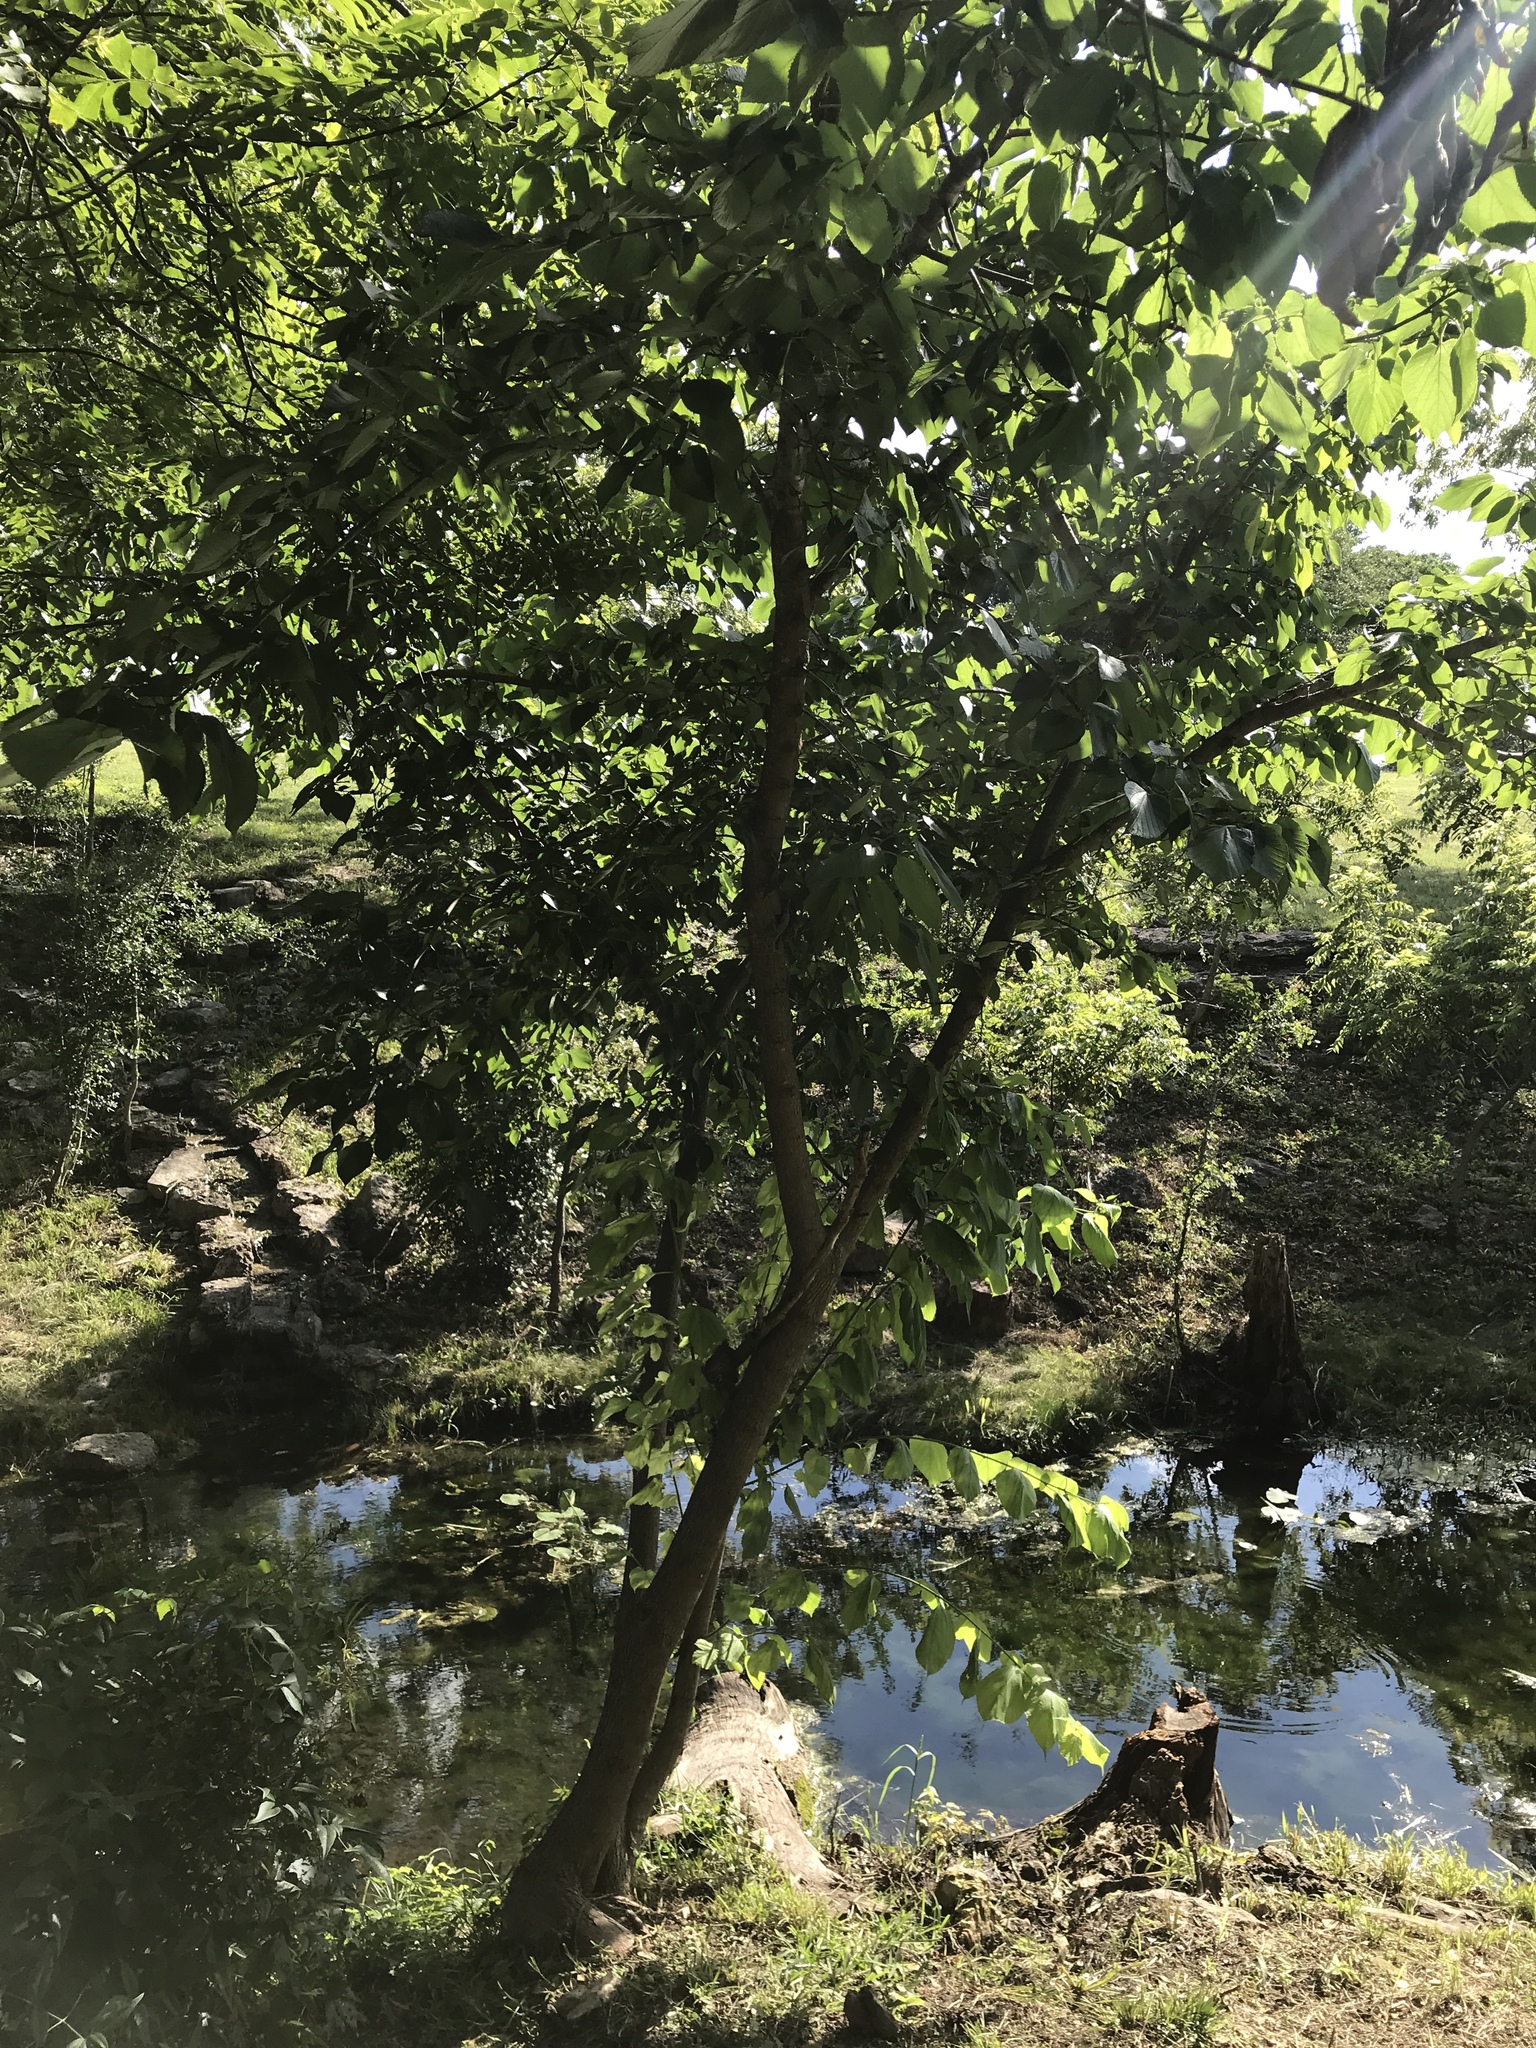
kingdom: Plantae
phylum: Tracheophyta
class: Magnoliopsida
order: Rosales
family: Moraceae
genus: Morus
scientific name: Morus rubra
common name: Red mulberry
